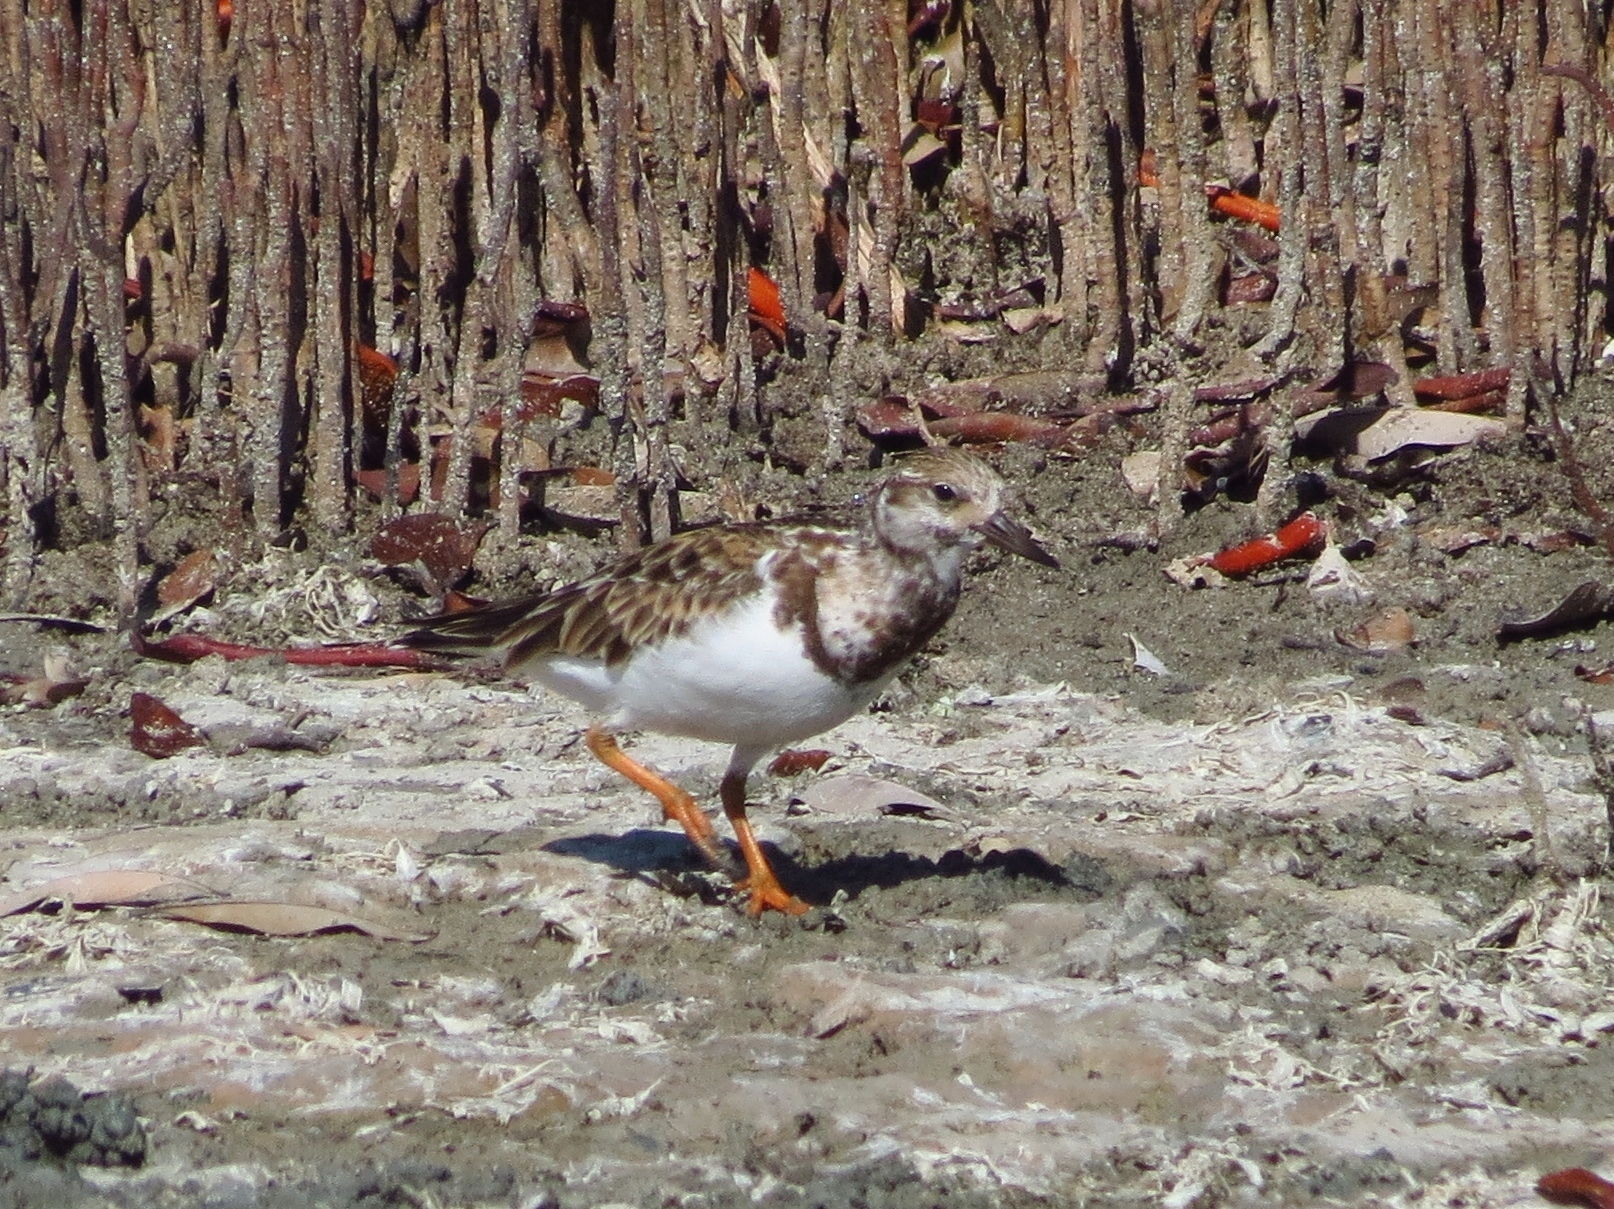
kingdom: Animalia
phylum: Chordata
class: Aves
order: Charadriiformes
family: Scolopacidae
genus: Arenaria
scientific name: Arenaria interpres
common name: Ruddy turnstone
